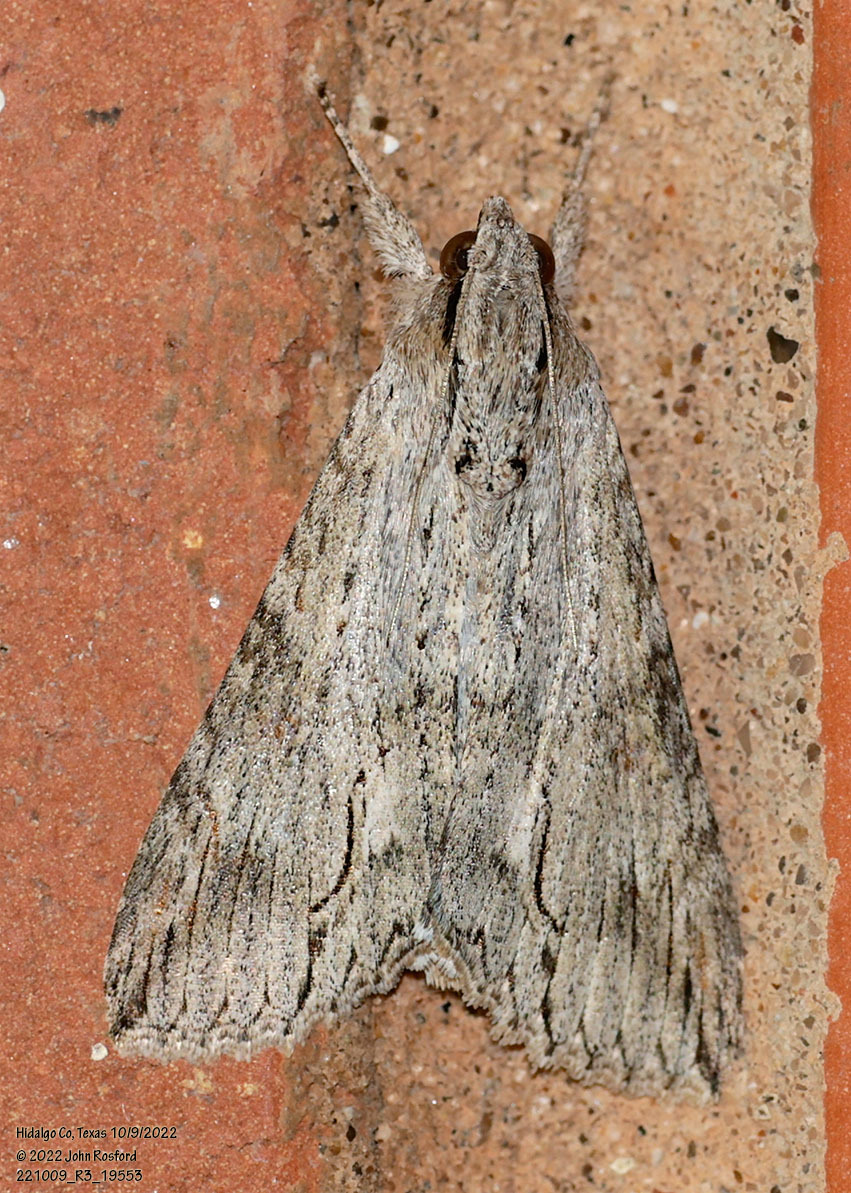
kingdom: Animalia
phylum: Arthropoda
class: Insecta
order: Lepidoptera
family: Erebidae
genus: Melipotis
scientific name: Melipotis acontioides
